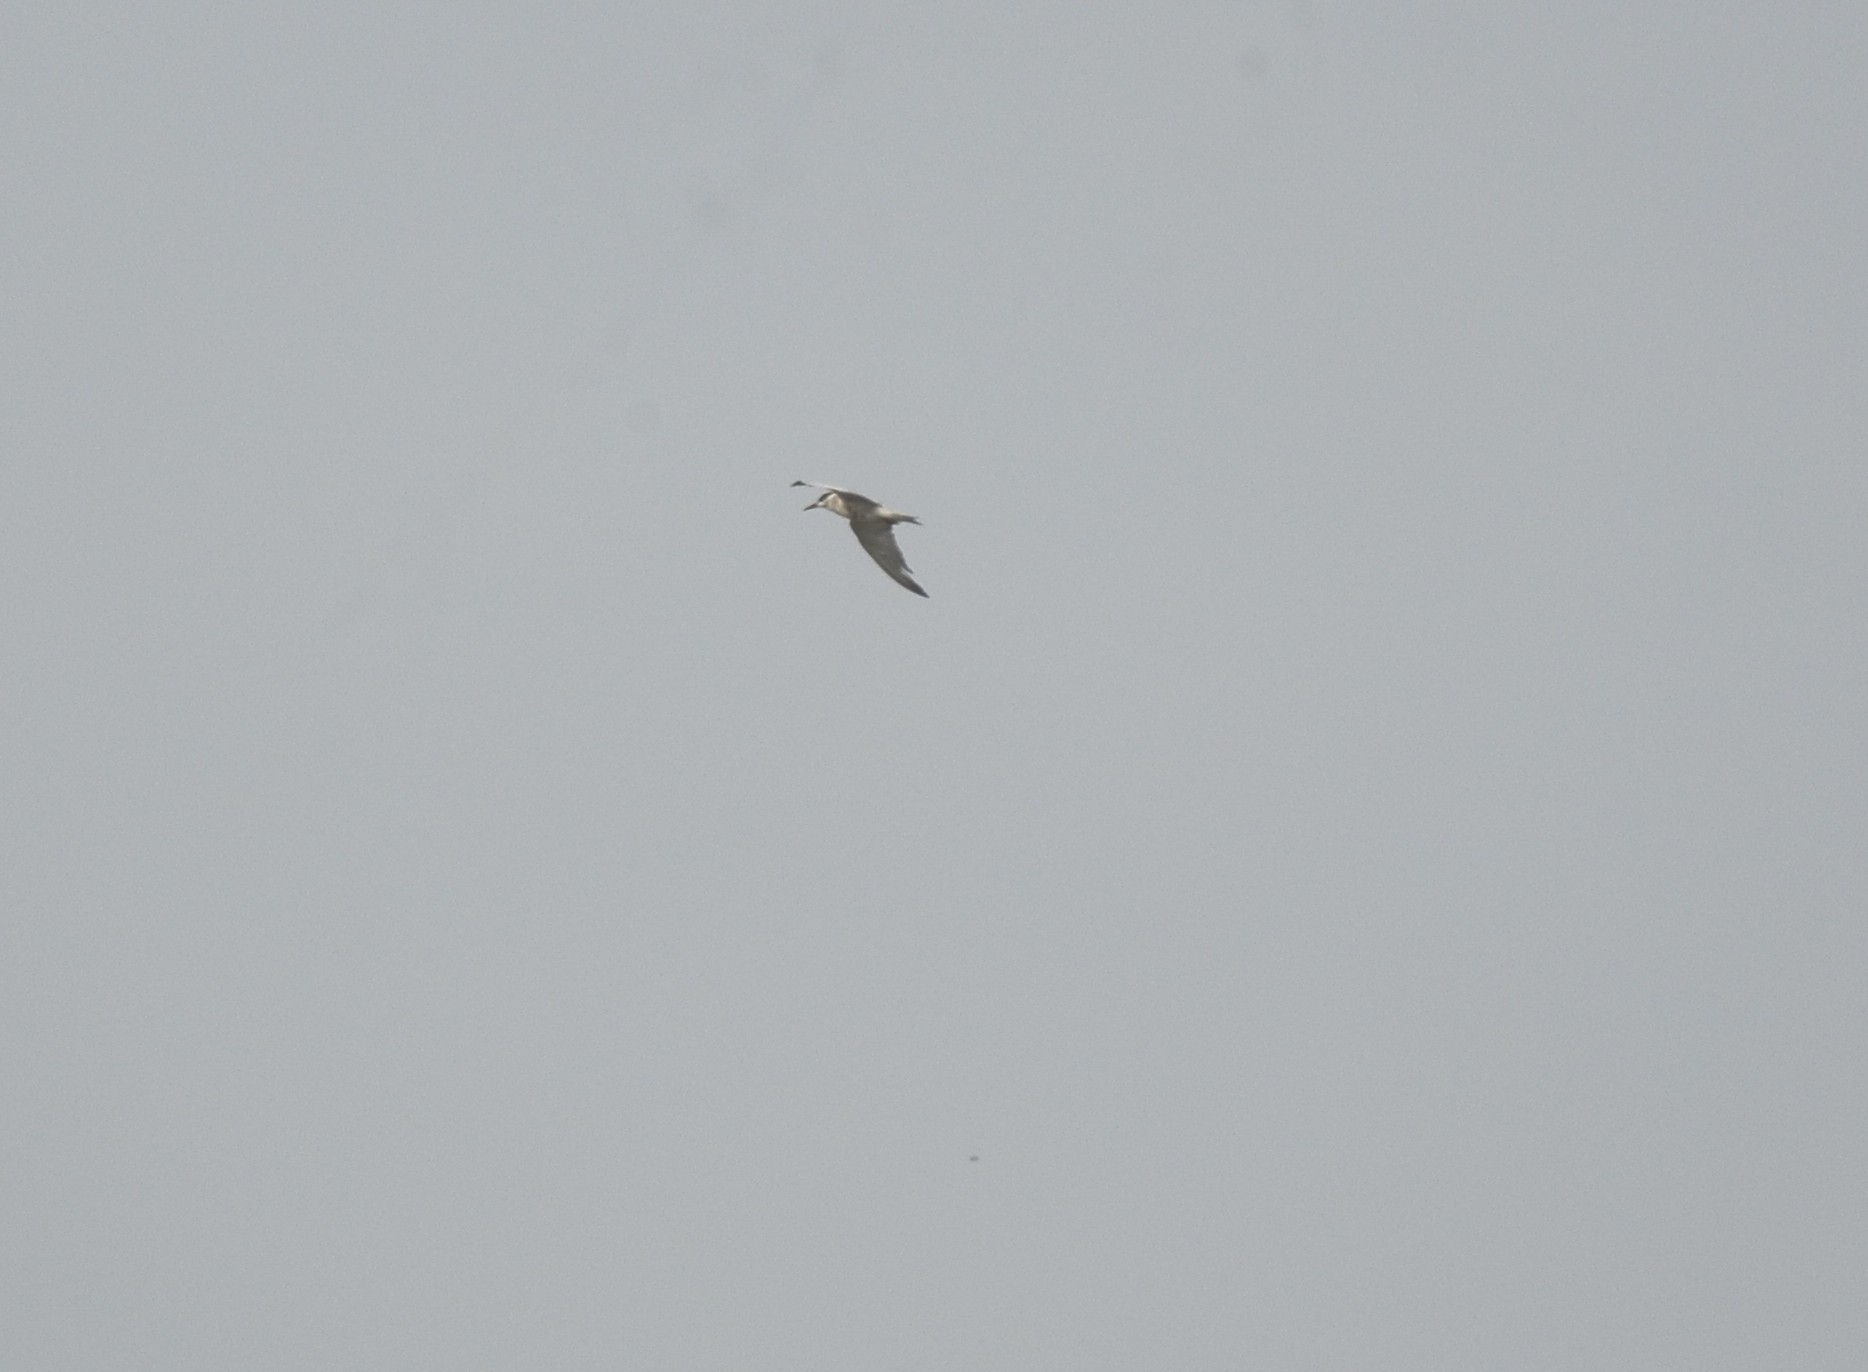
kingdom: Animalia
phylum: Chordata
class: Aves
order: Charadriiformes
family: Laridae
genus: Chlidonias
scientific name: Chlidonias hybrida
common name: Whiskered tern
